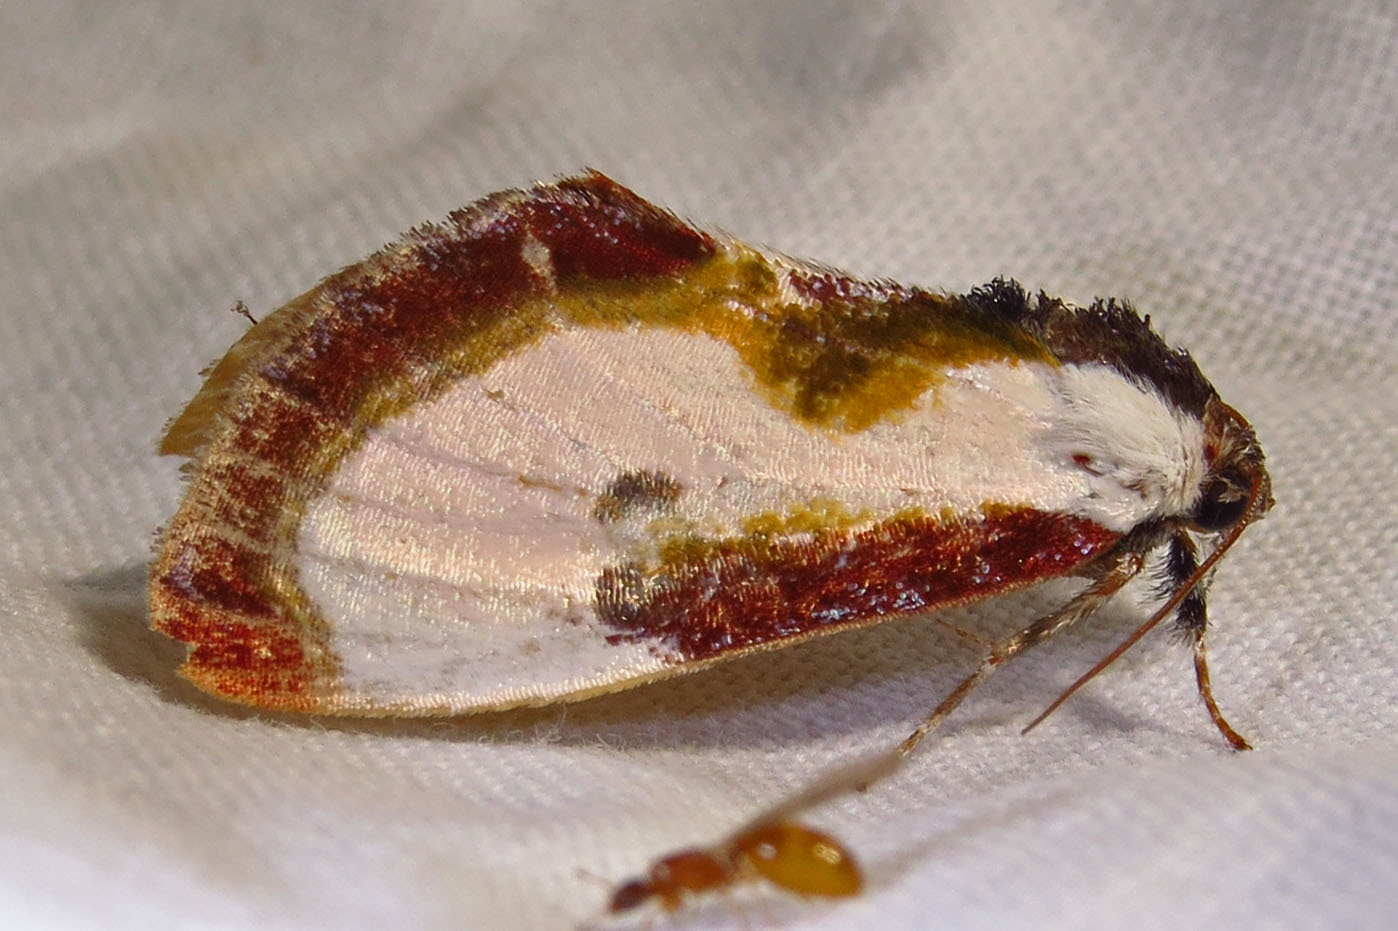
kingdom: Animalia
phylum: Arthropoda
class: Insecta
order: Lepidoptera
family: Noctuidae
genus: Eudryas
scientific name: Eudryas grata
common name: Beautiful wood-nymph
